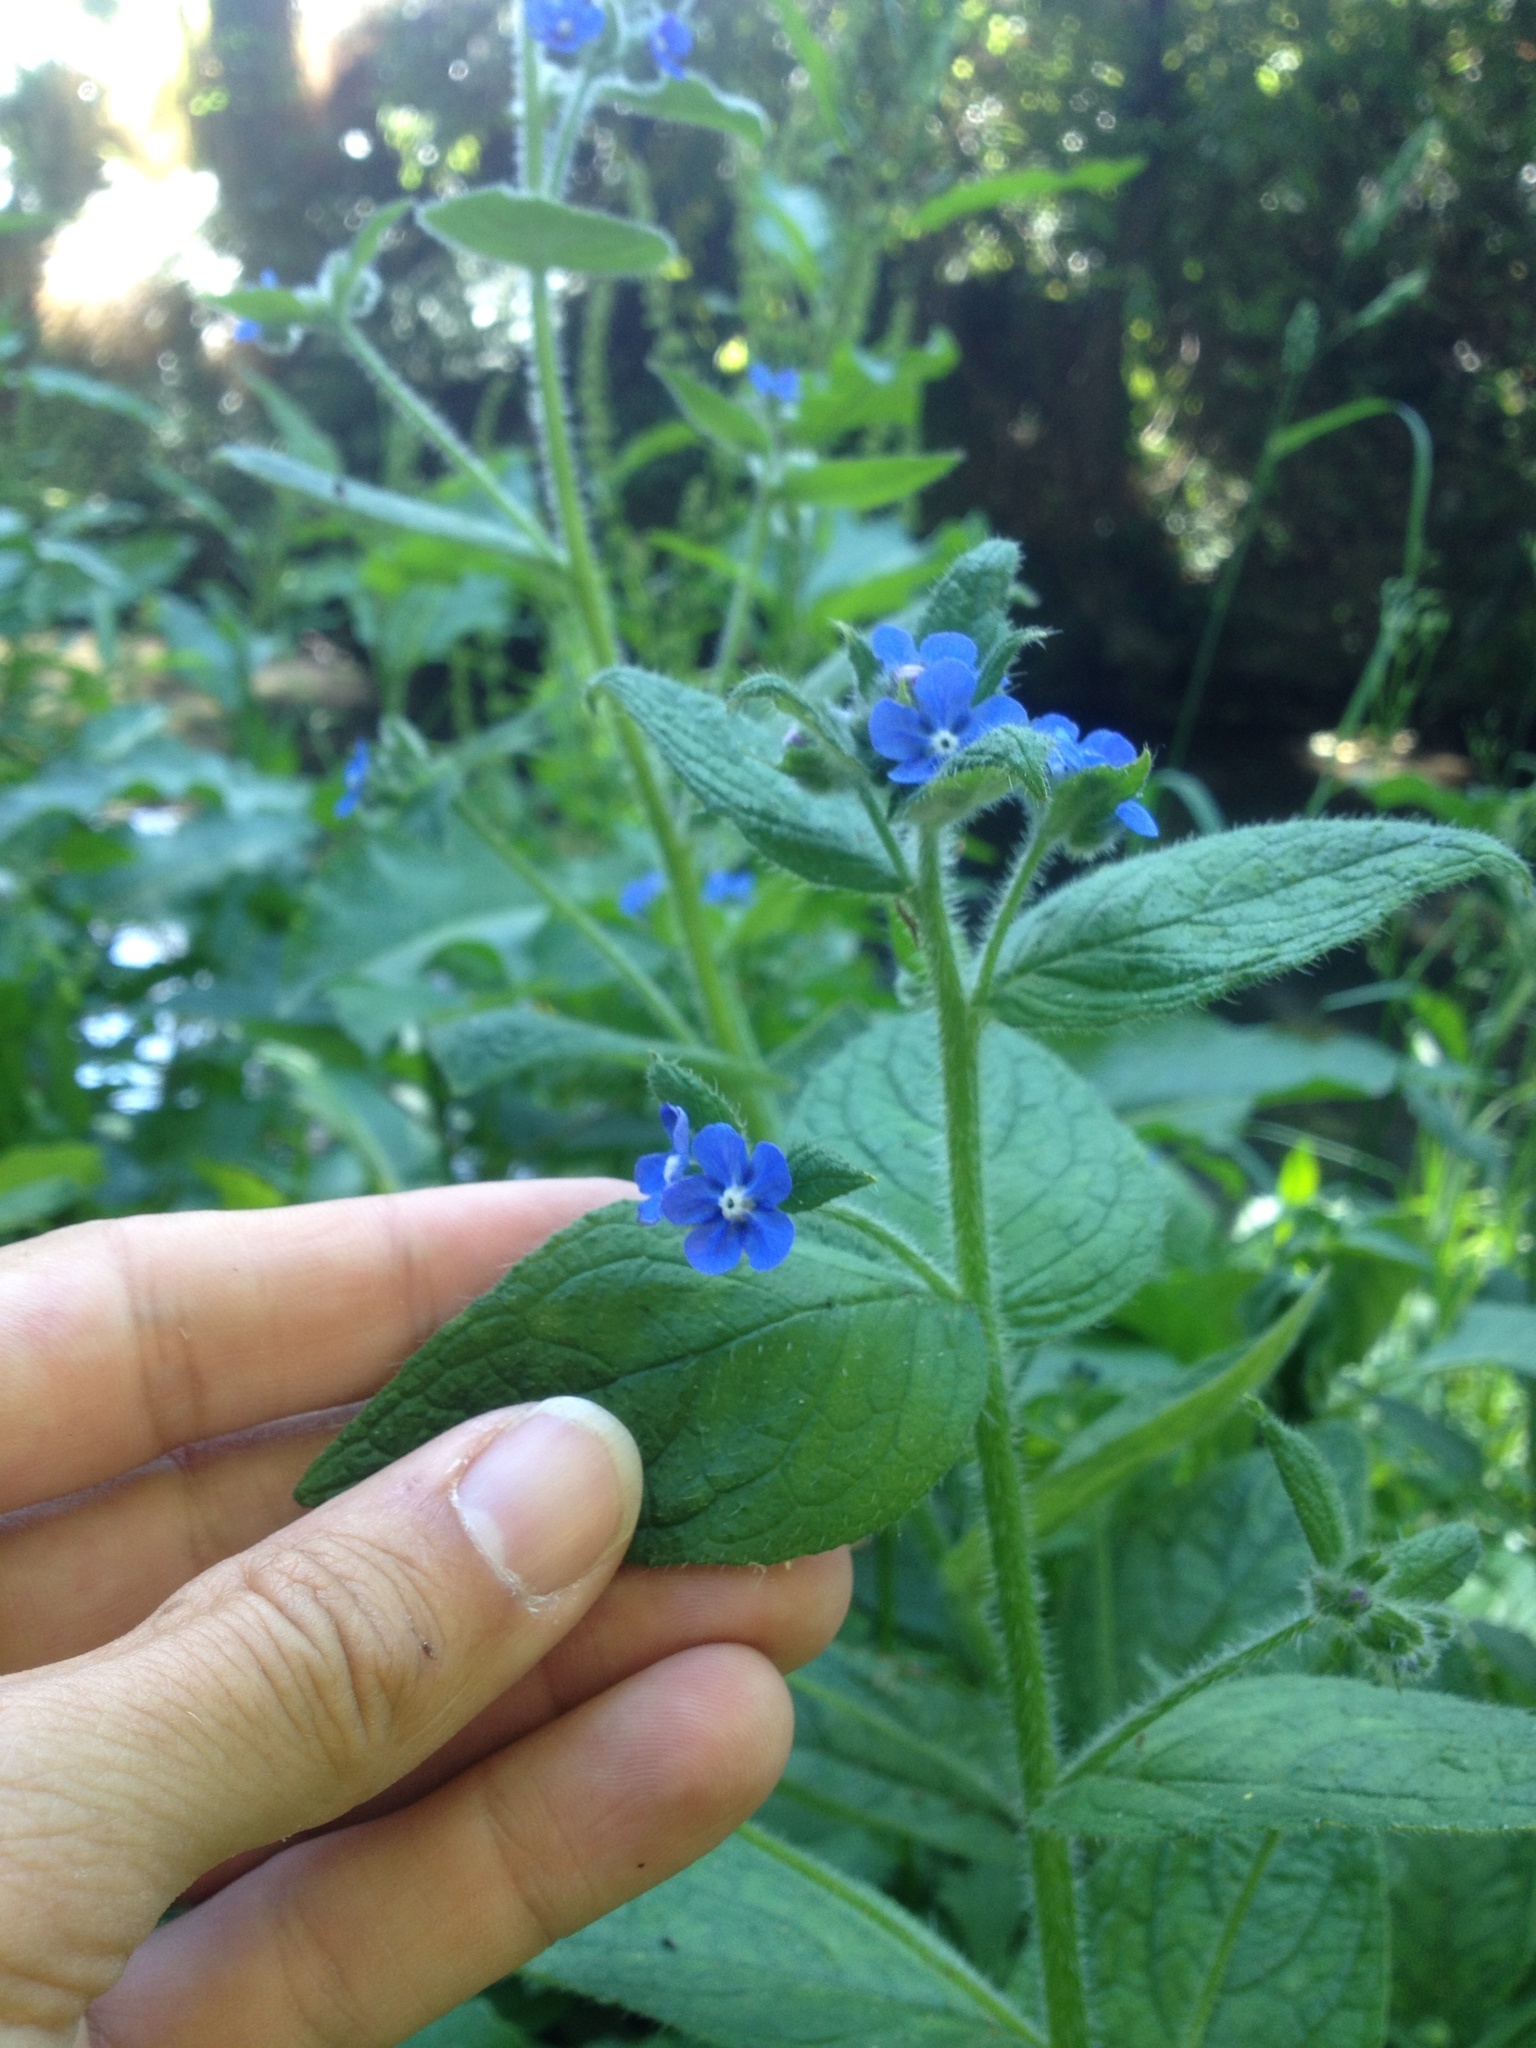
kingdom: Plantae
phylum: Tracheophyta
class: Magnoliopsida
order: Boraginales
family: Boraginaceae
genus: Pentaglottis
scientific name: Pentaglottis sempervirens
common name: Green alkanet
